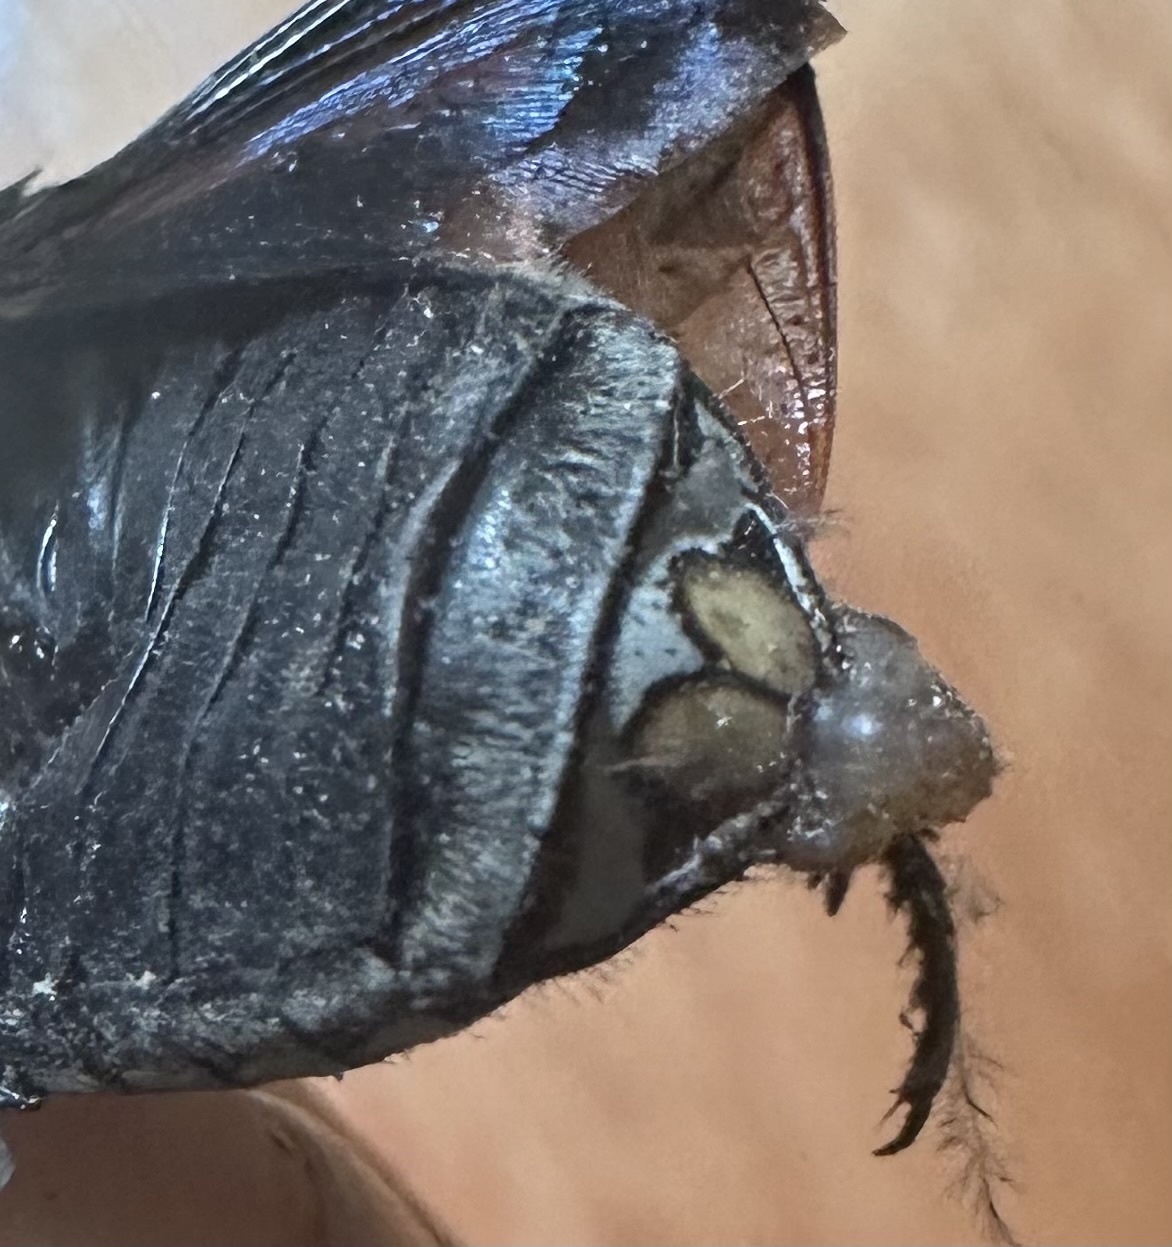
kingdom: Animalia
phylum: Arthropoda
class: Insecta
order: Coleoptera
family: Scarabaeidae
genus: Dischista
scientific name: Dischista cincta
